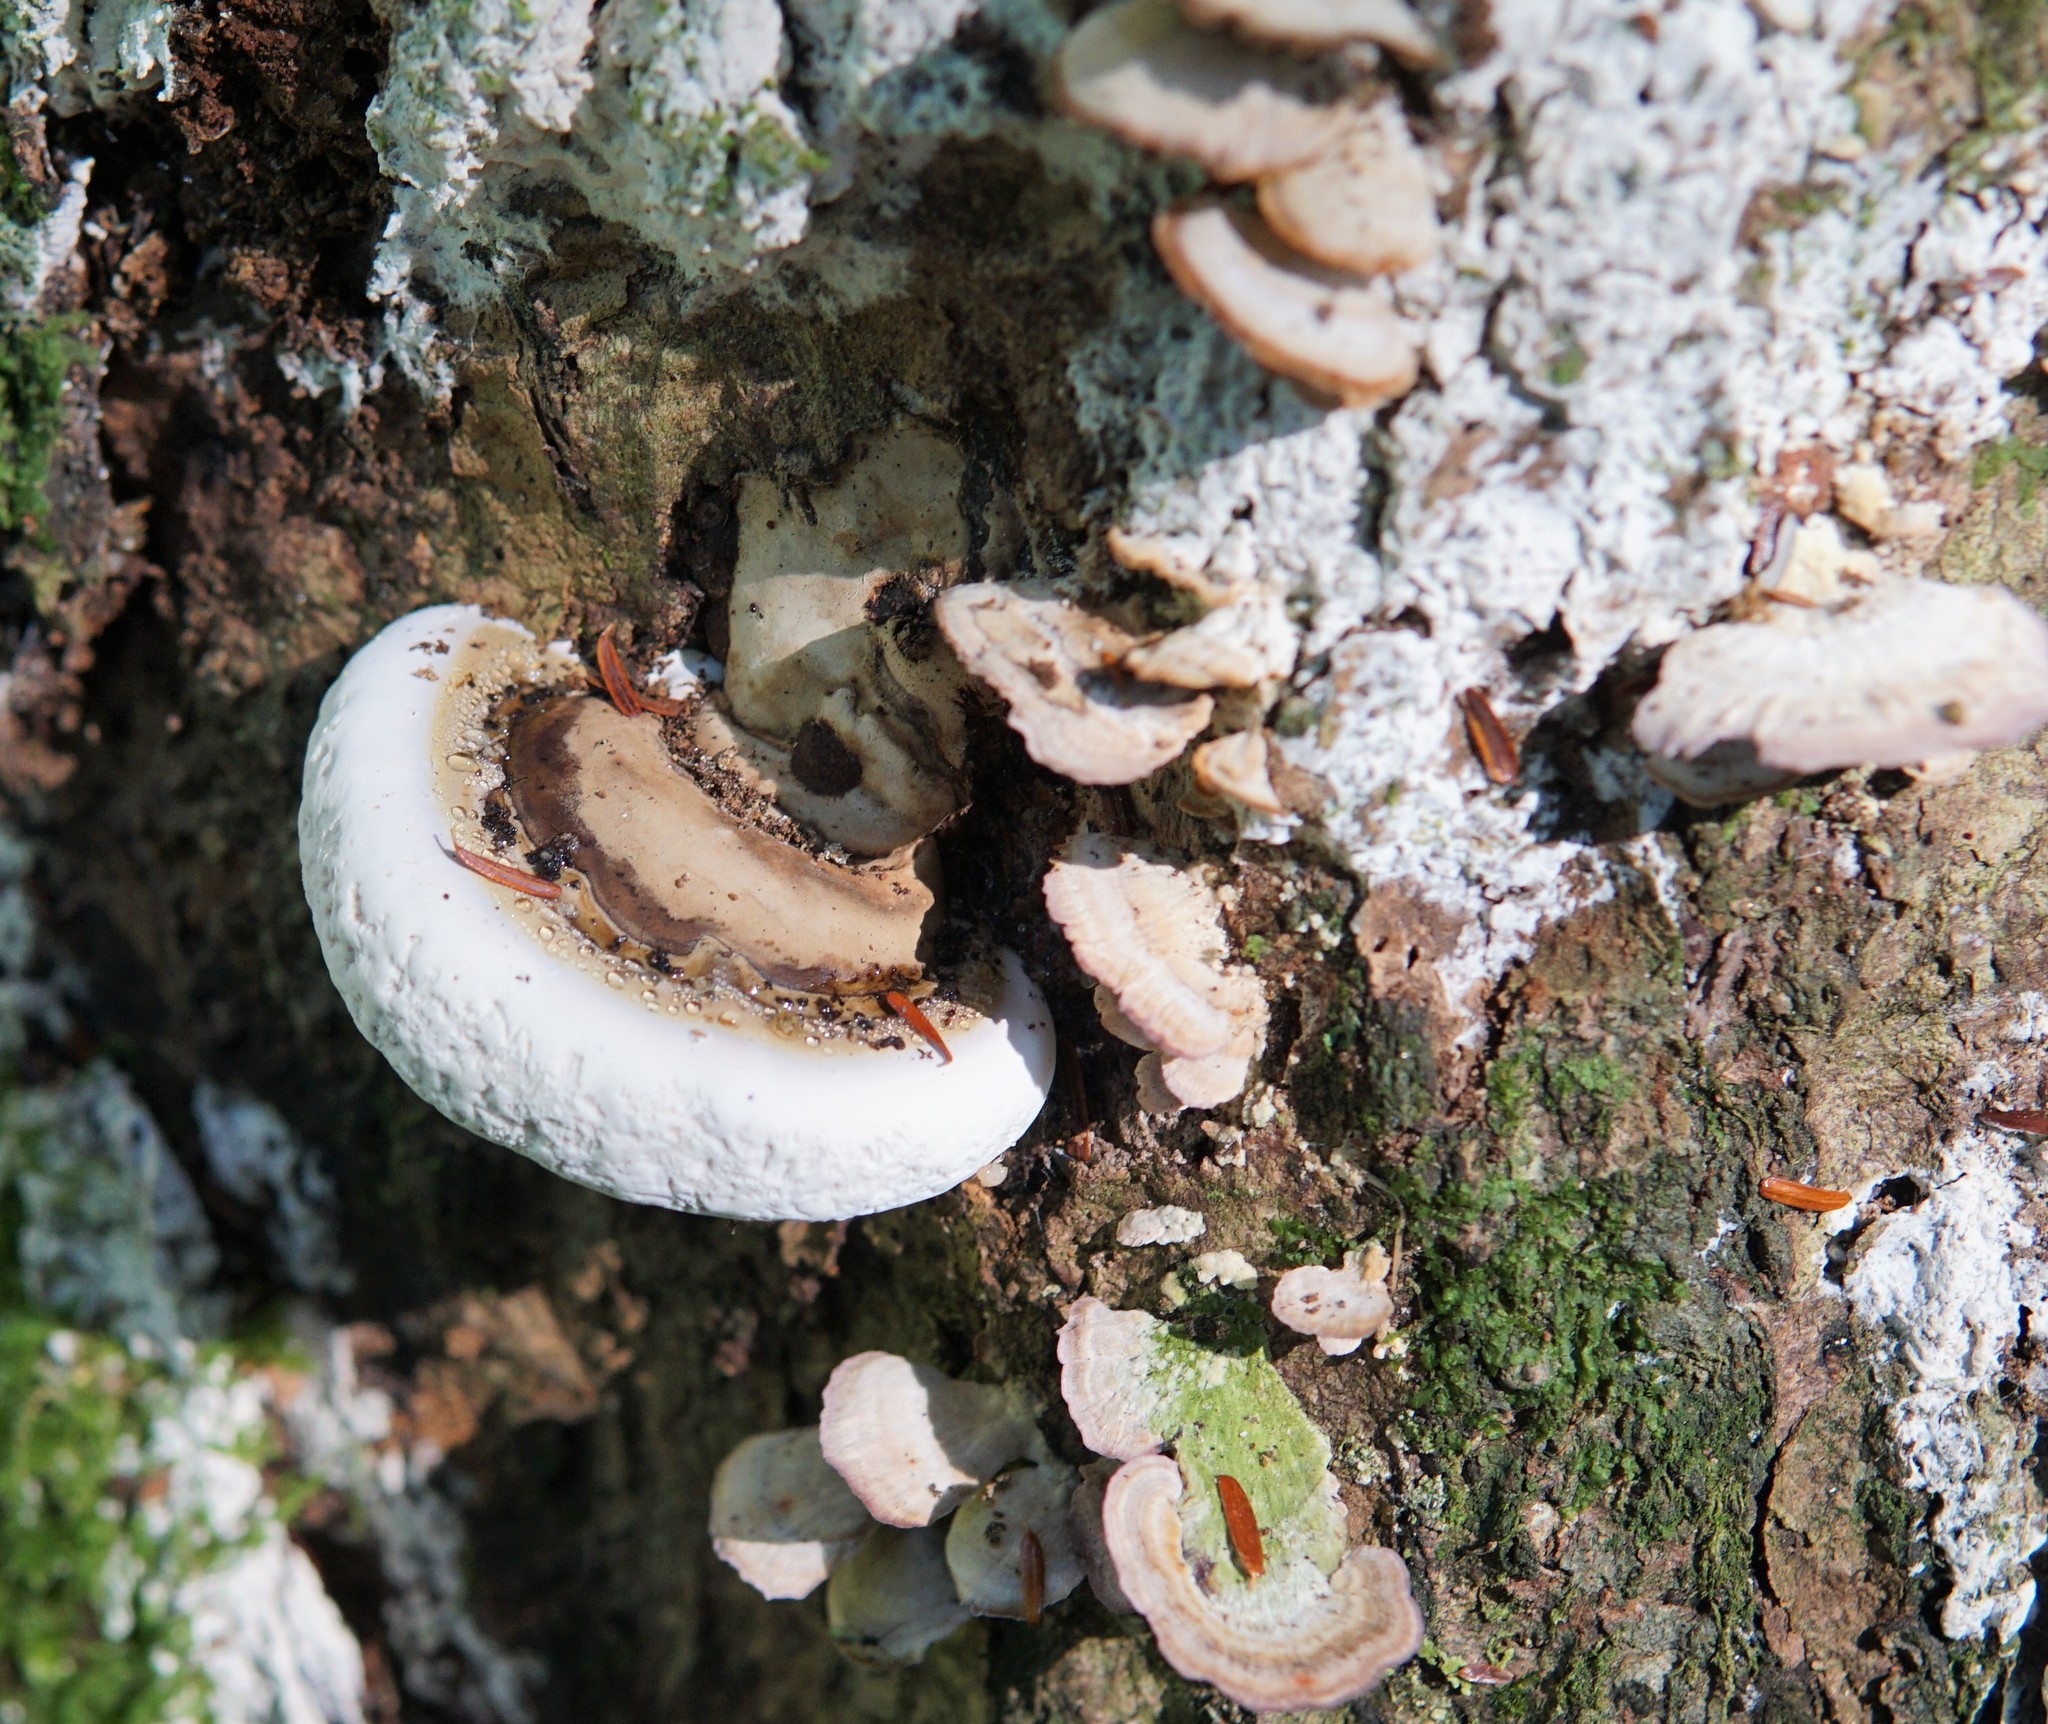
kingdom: Fungi
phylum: Basidiomycota
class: Agaricomycetes
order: Polyporales
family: Polyporaceae
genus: Ganoderma
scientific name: Ganoderma applanatum
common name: Artist's bracket
